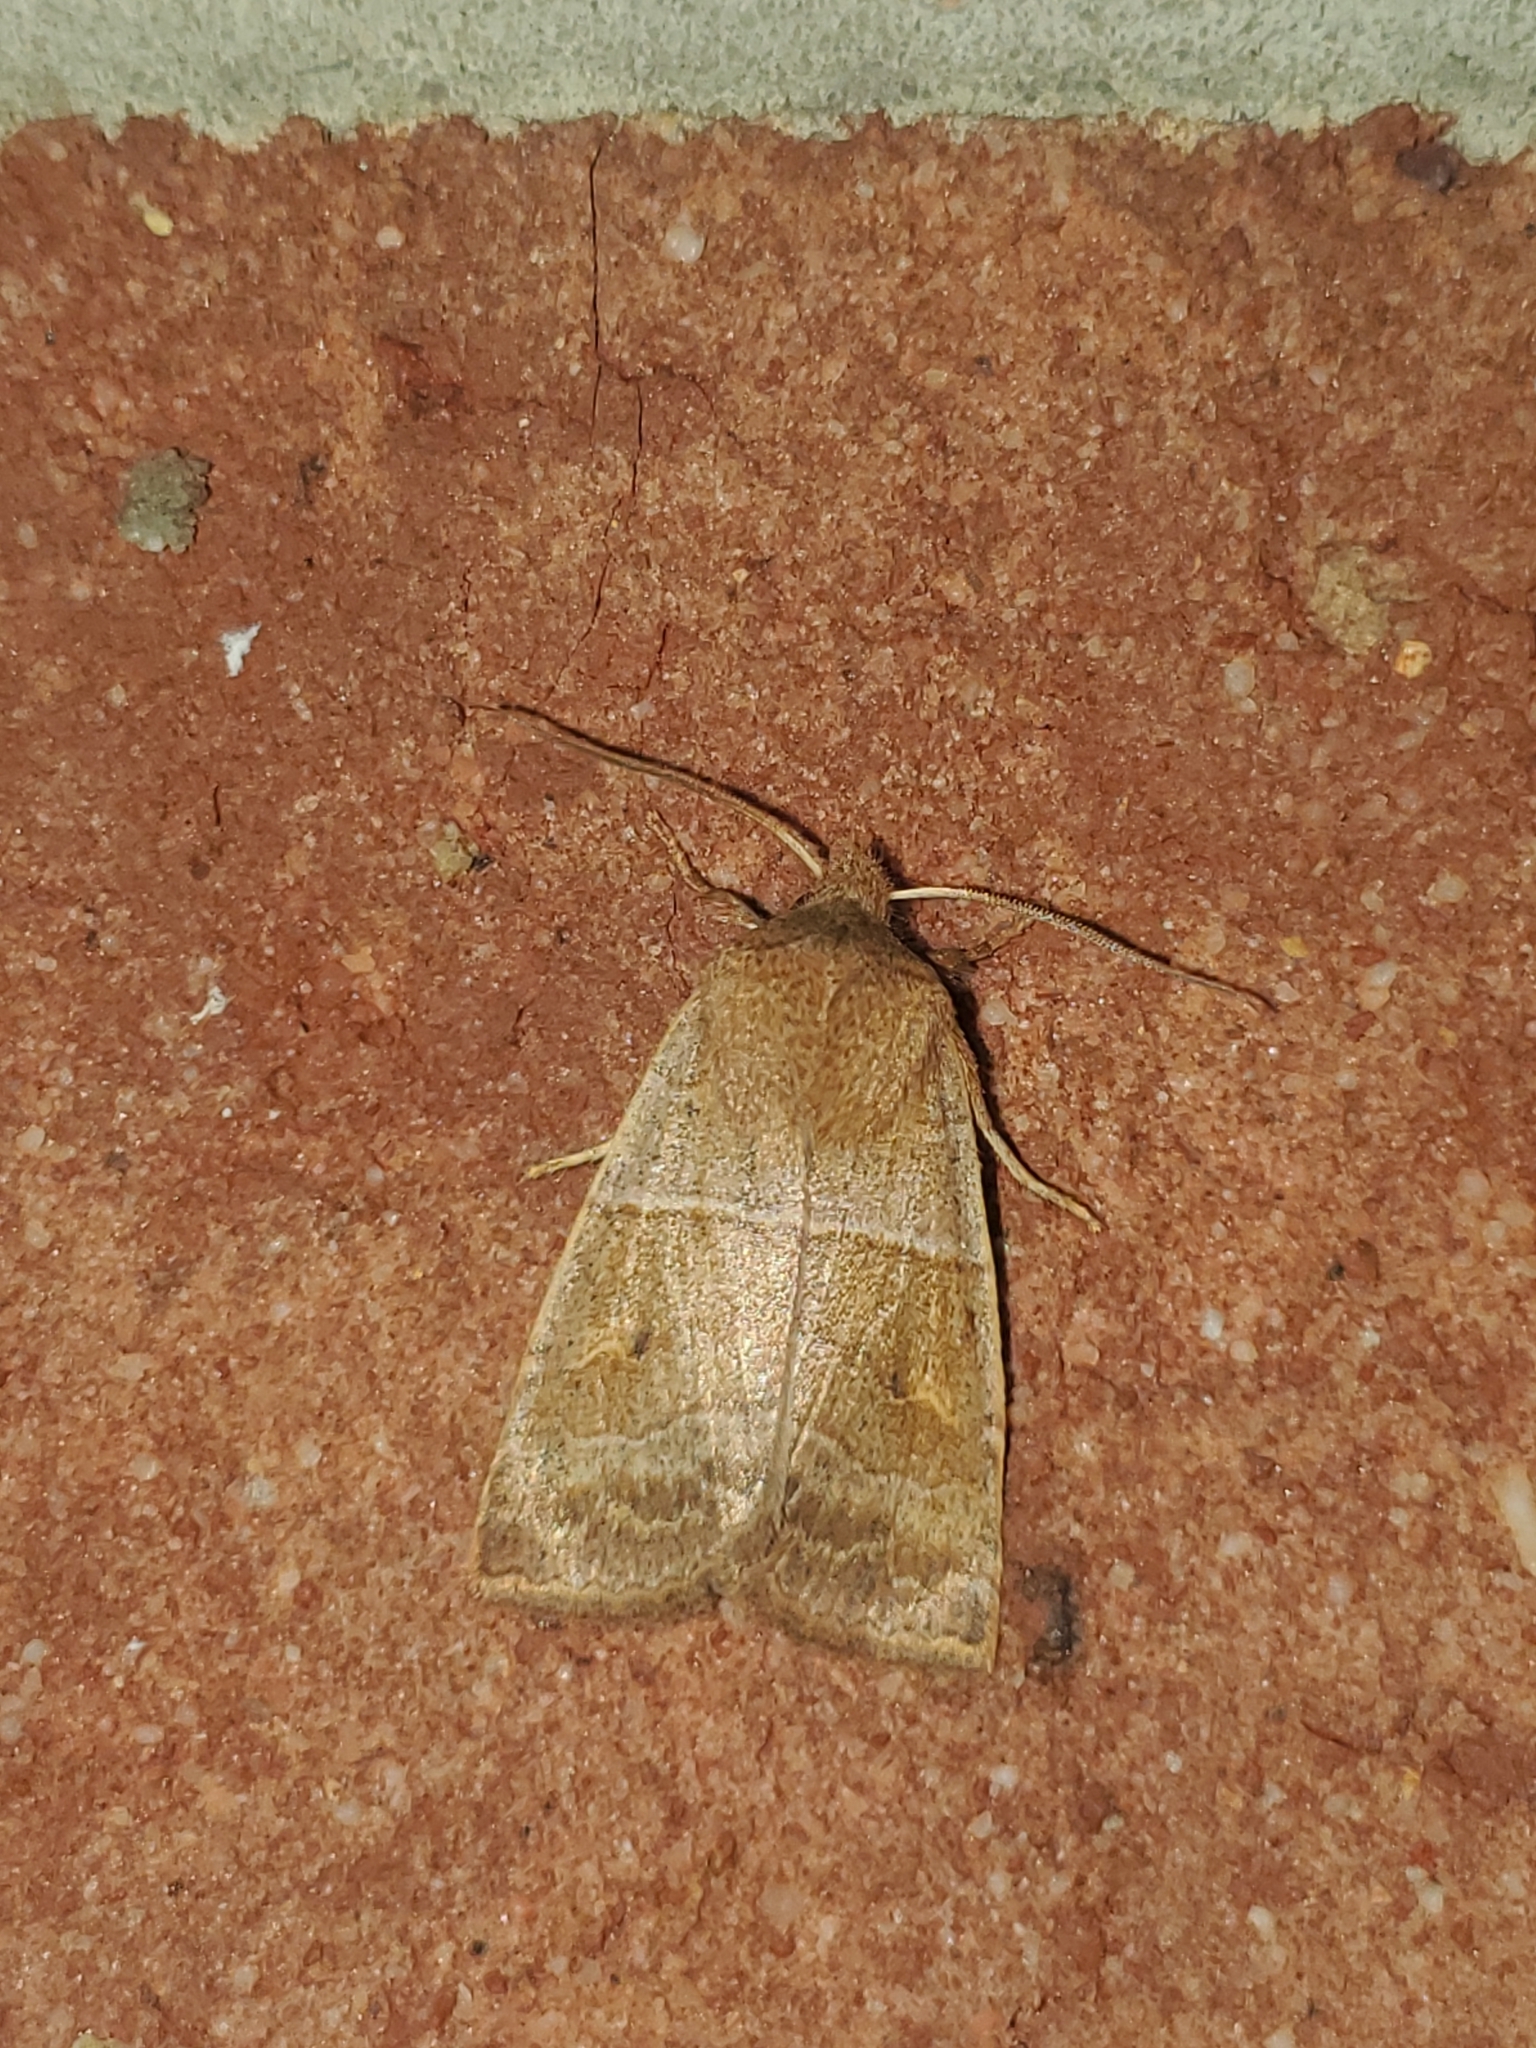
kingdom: Animalia
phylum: Arthropoda
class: Insecta
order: Lepidoptera
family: Noctuidae
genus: Eupsilia
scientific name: Eupsilia morrisoni
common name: Morrison's sallow
